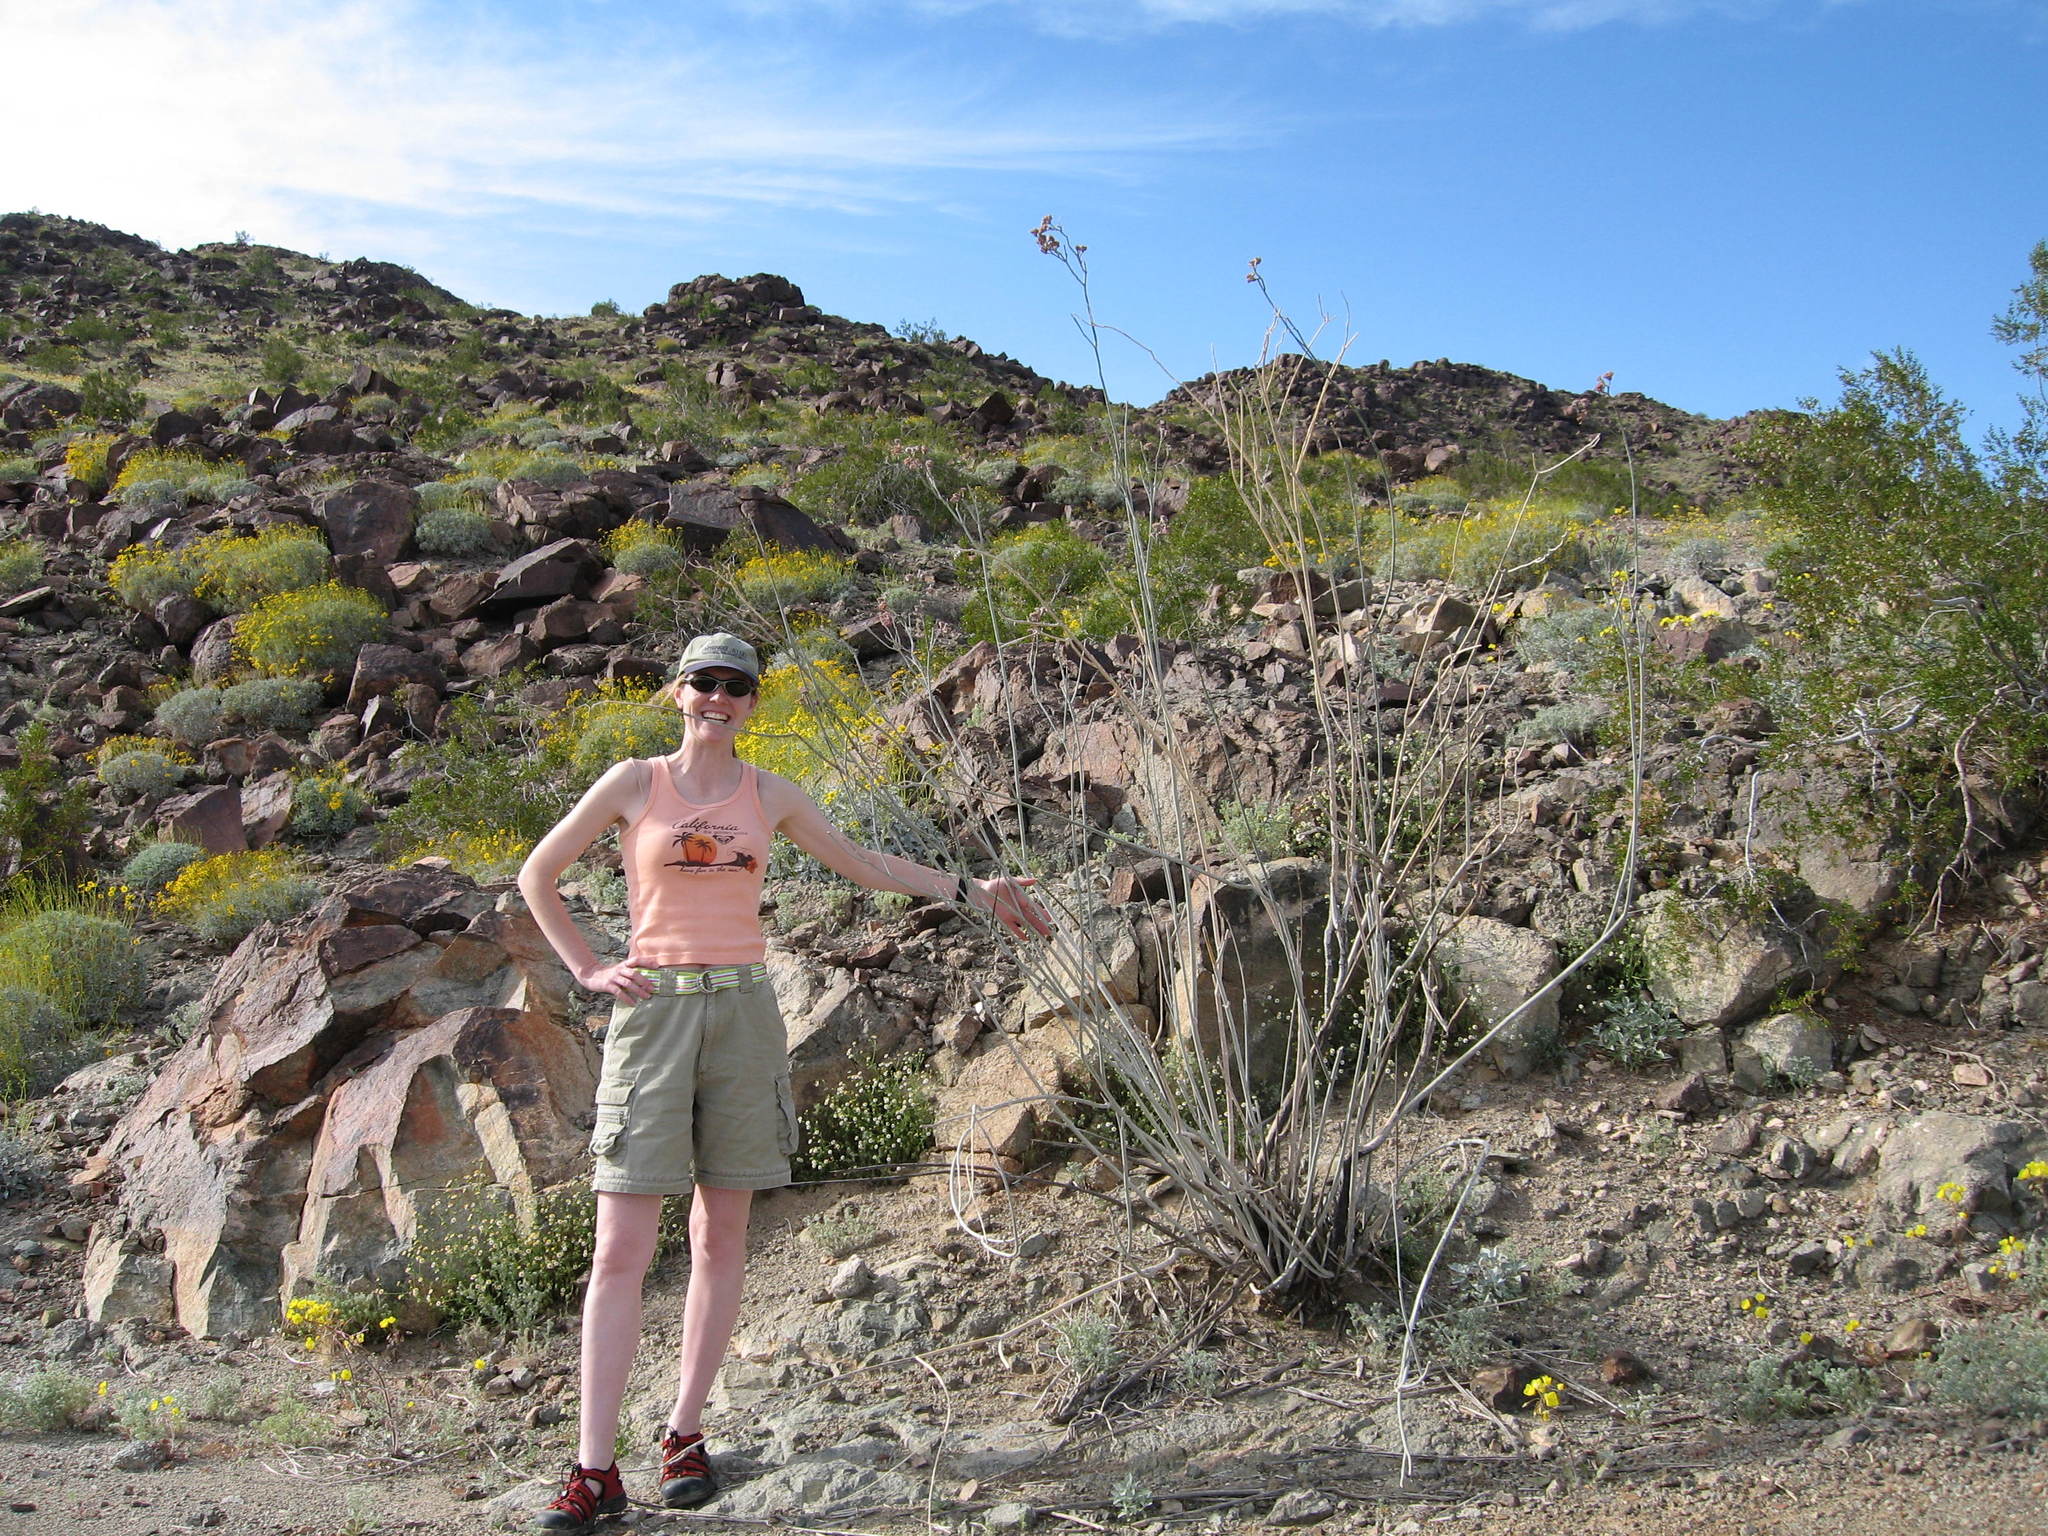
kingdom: Plantae
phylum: Tracheophyta
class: Magnoliopsida
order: Gentianales
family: Apocynaceae
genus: Asclepias
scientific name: Asclepias albicans
